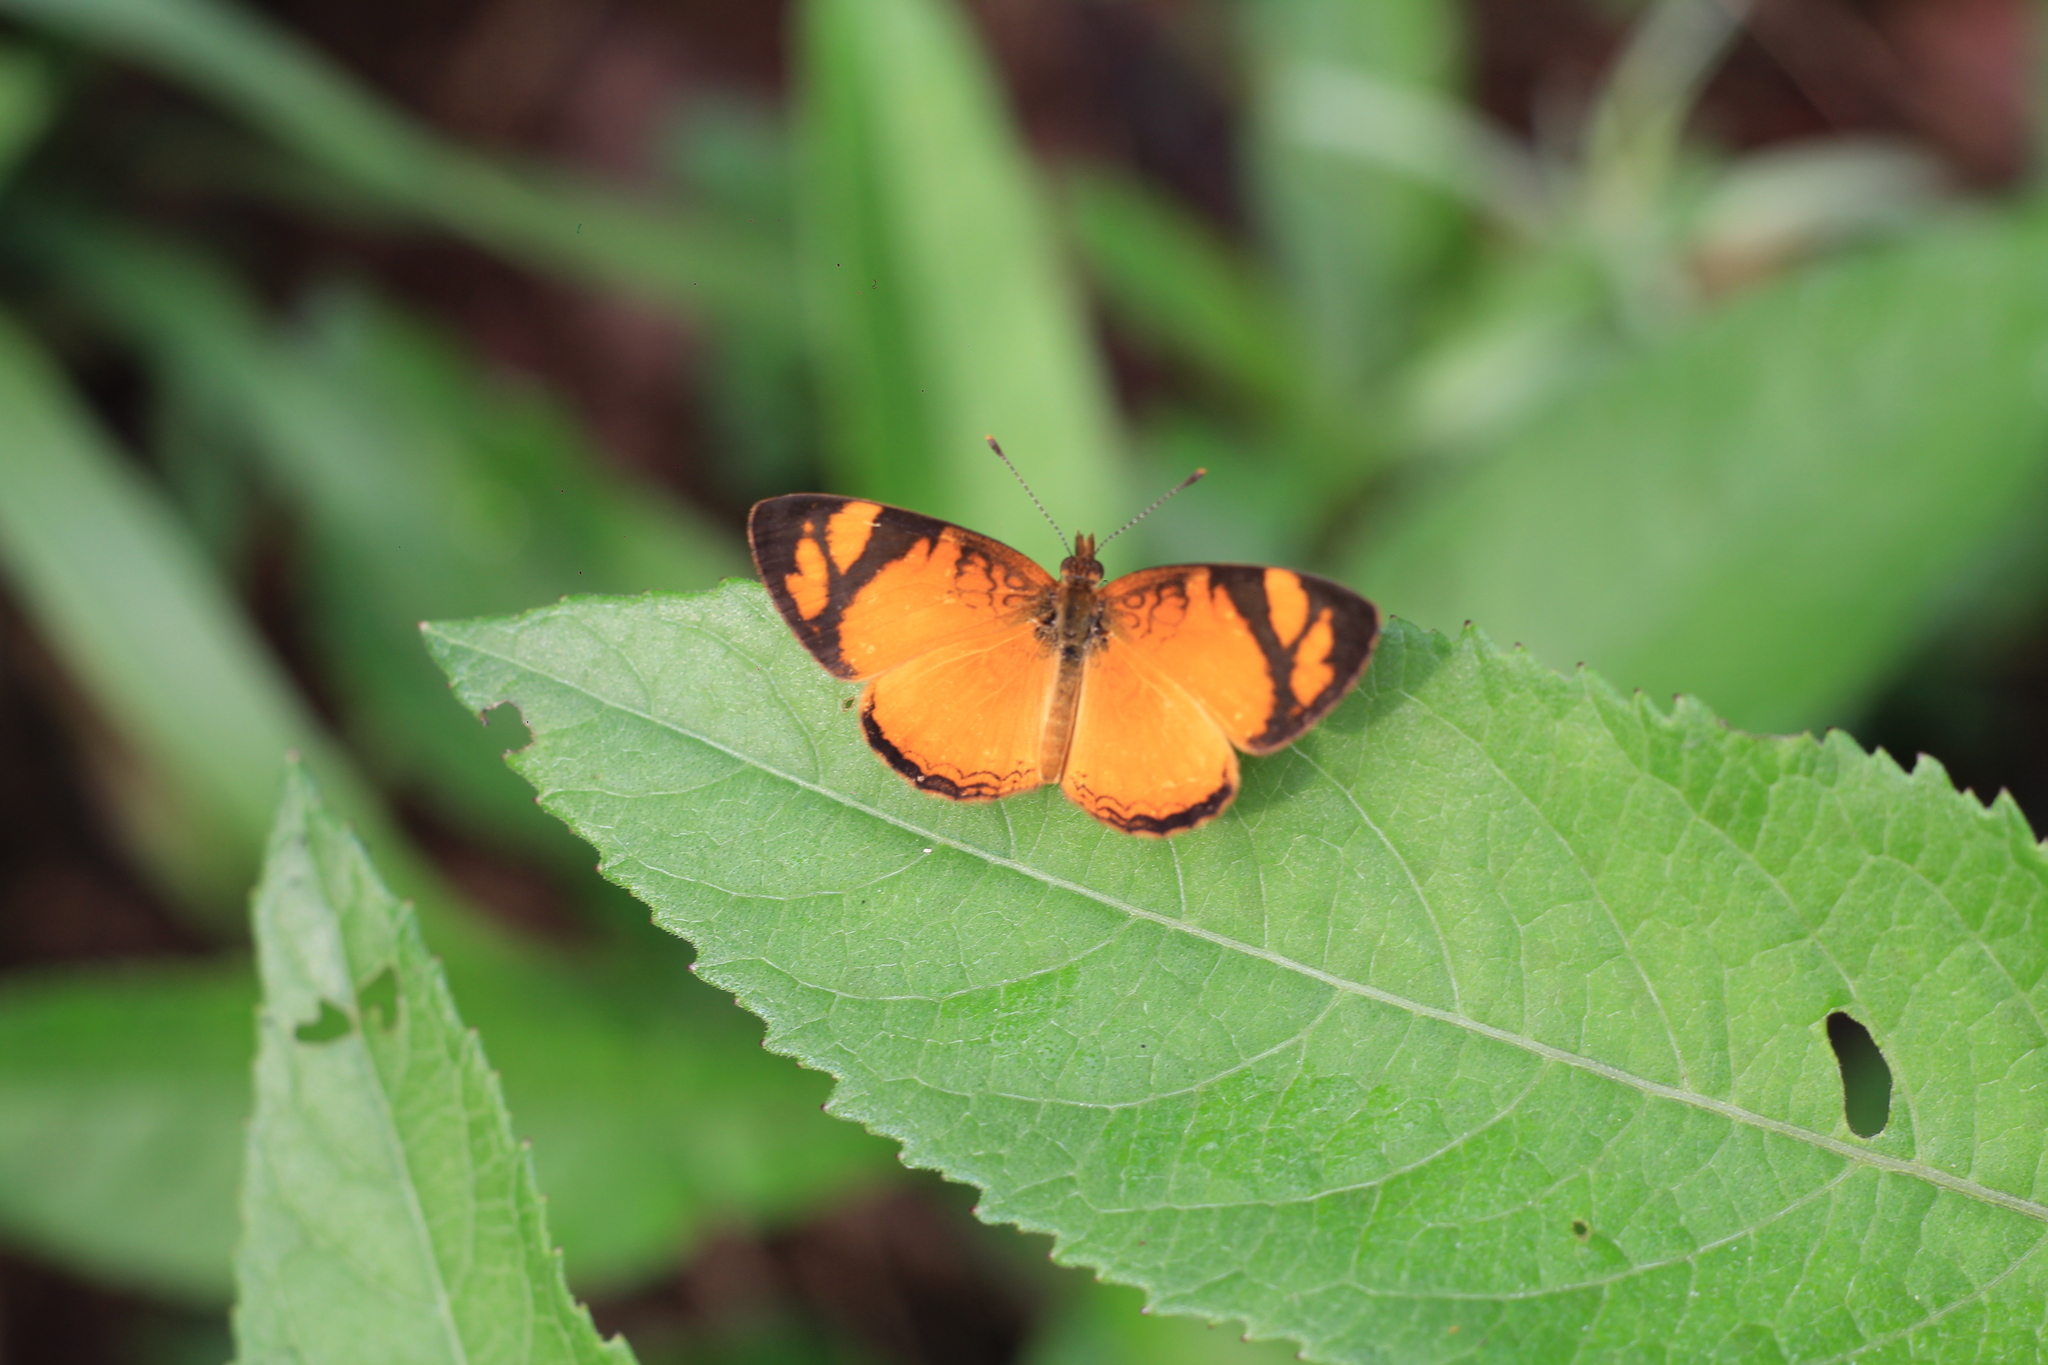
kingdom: Animalia
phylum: Arthropoda
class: Insecta
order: Lepidoptera
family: Nymphalidae
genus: Tegosa
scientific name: Tegosa claudina
